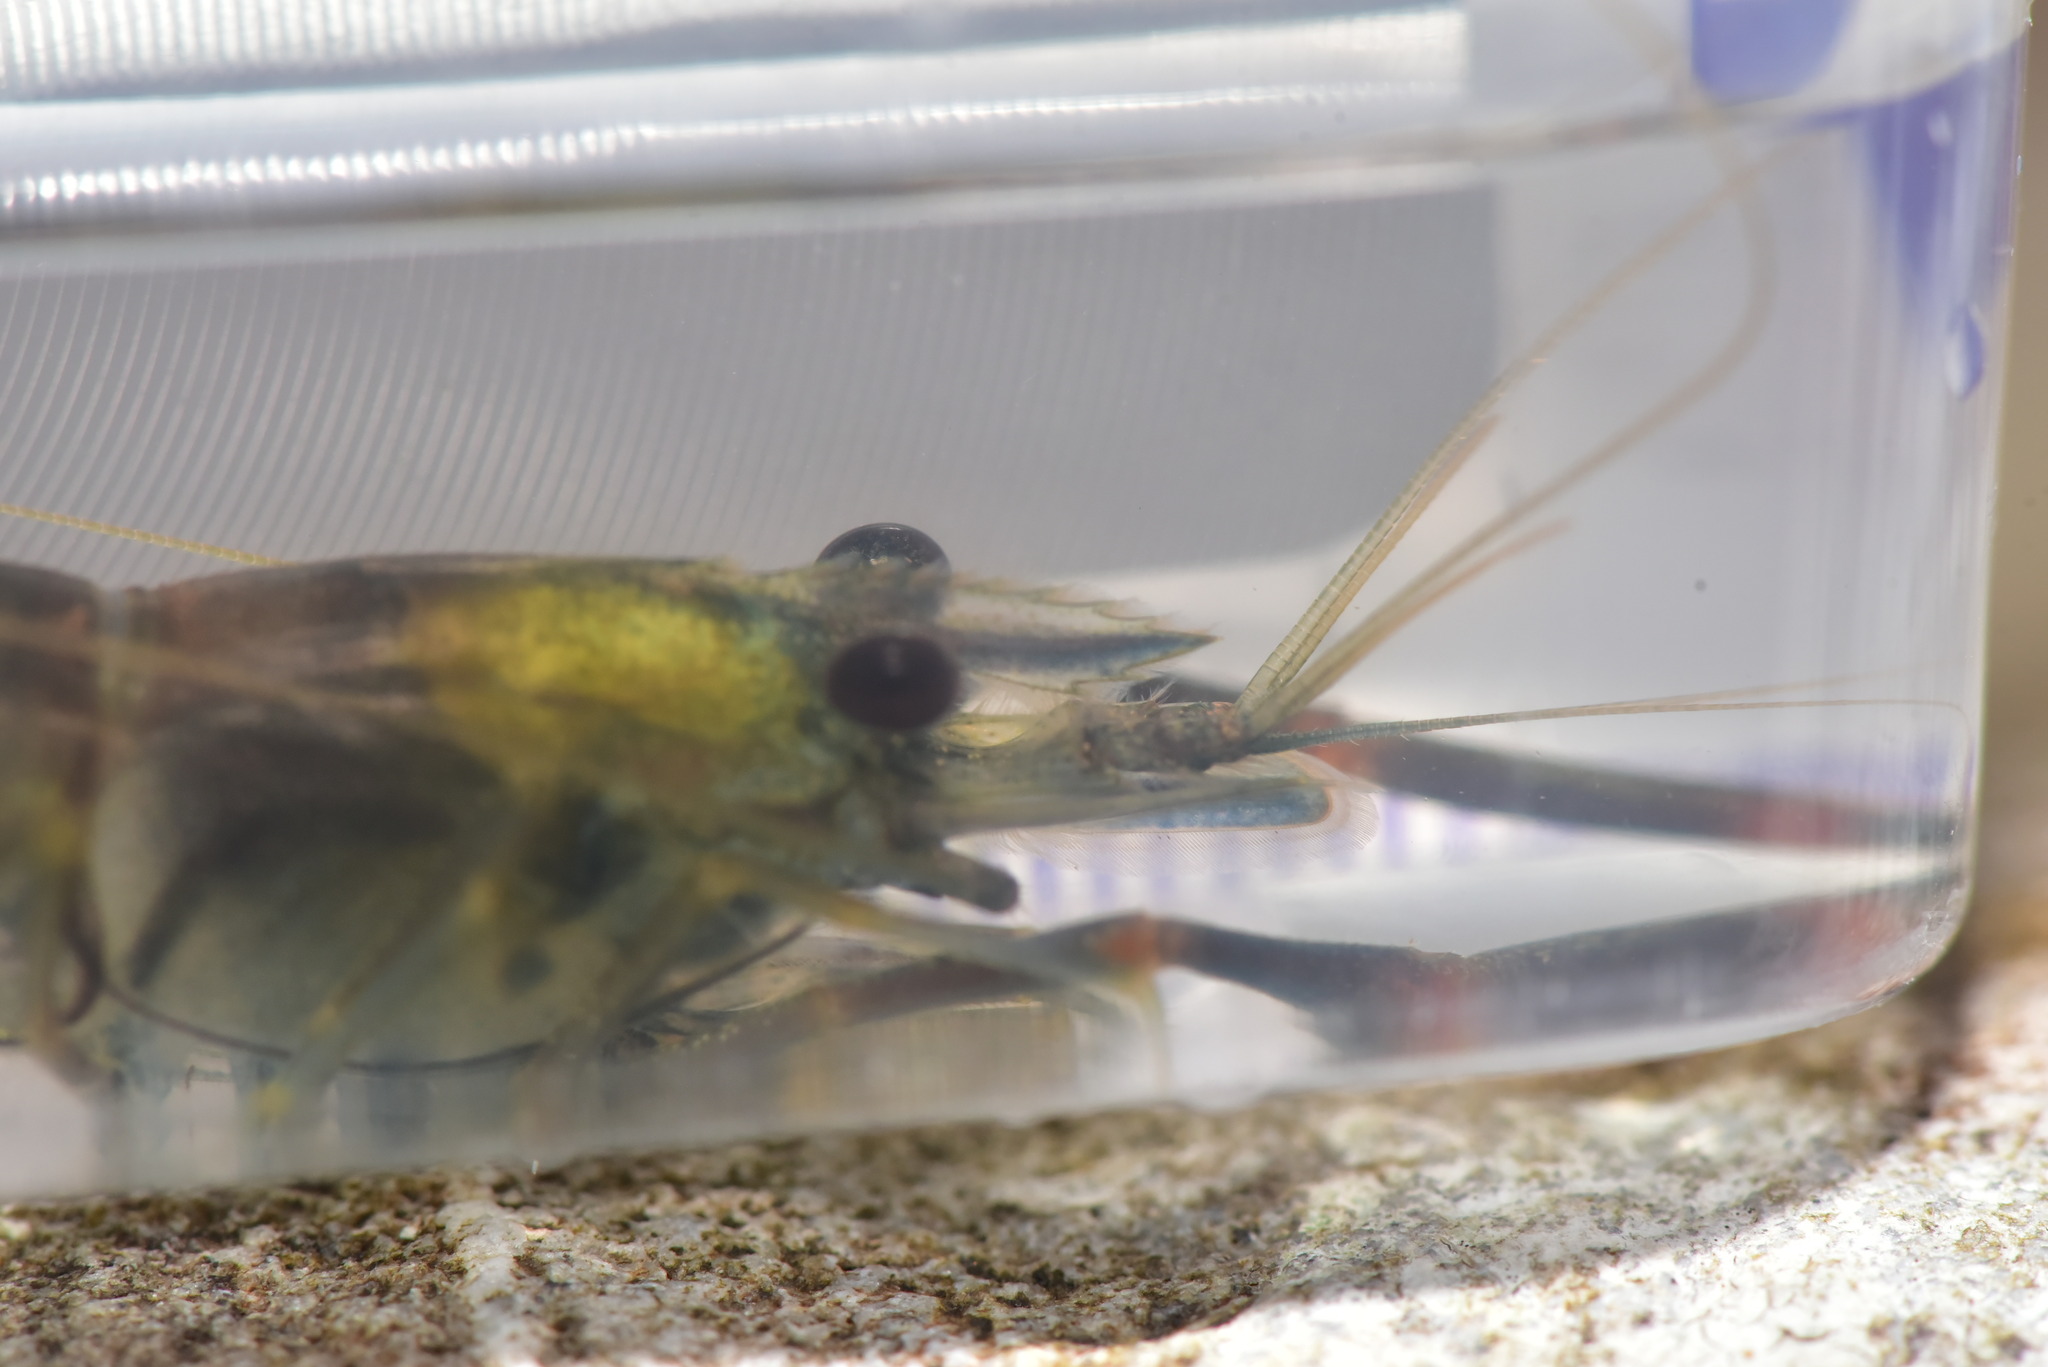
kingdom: Animalia
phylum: Arthropoda
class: Malacostraca
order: Decapoda
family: Palaemonidae
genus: Macrobrachium
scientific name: Macrobrachium asperulum
